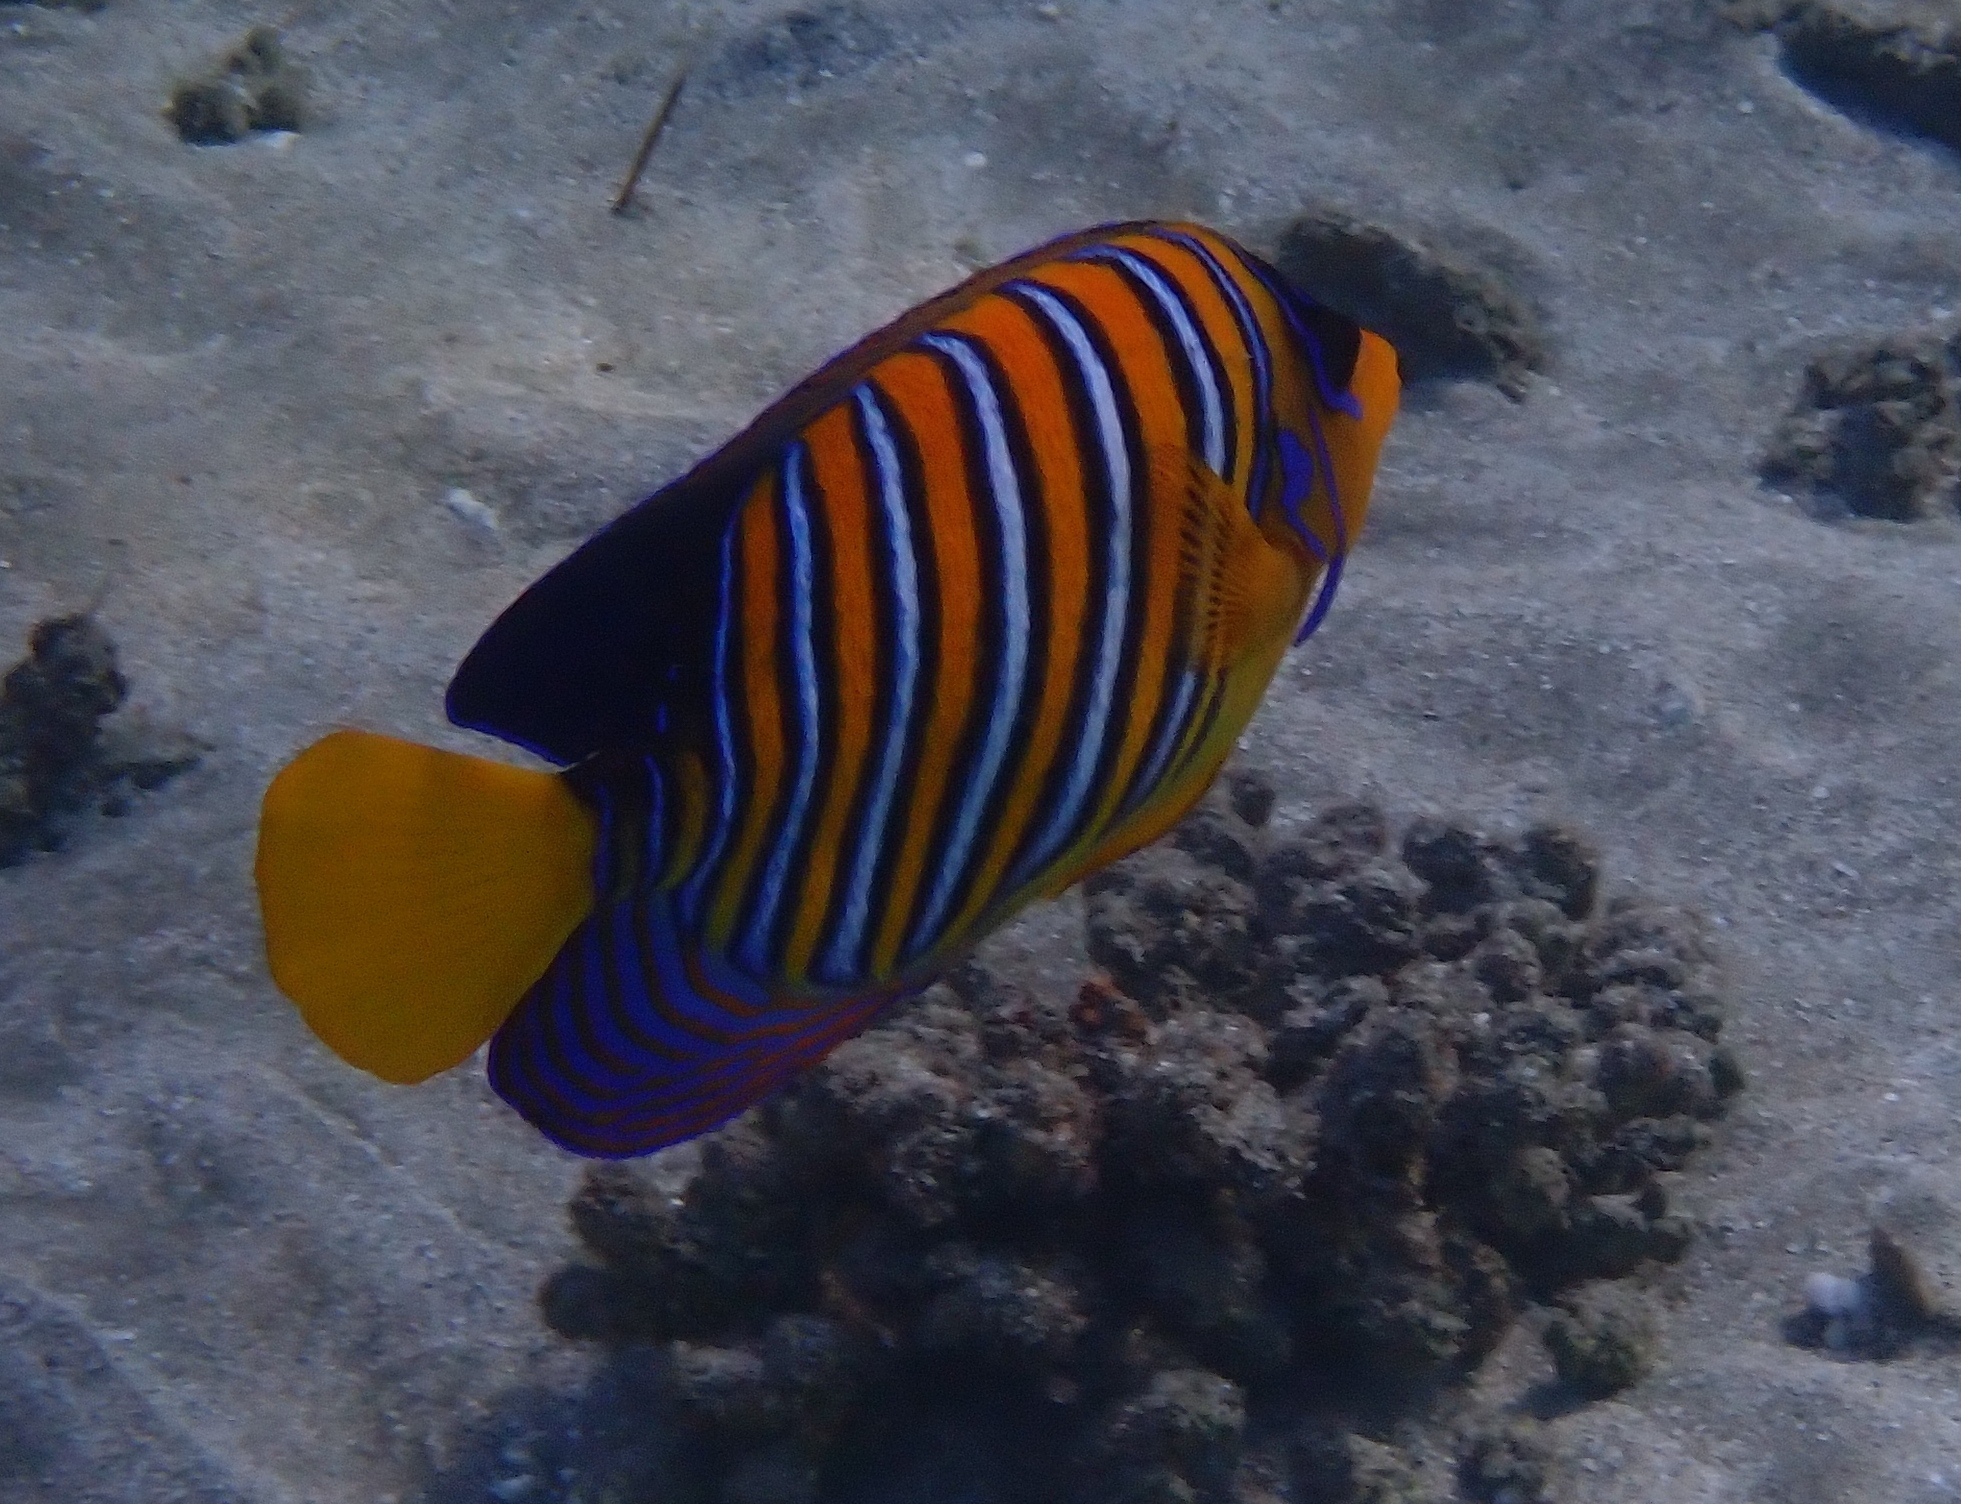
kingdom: Animalia
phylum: Chordata
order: Perciformes
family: Pomacanthidae
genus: Pygoplites
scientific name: Pygoplites diacanthus
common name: Regal angelfish
